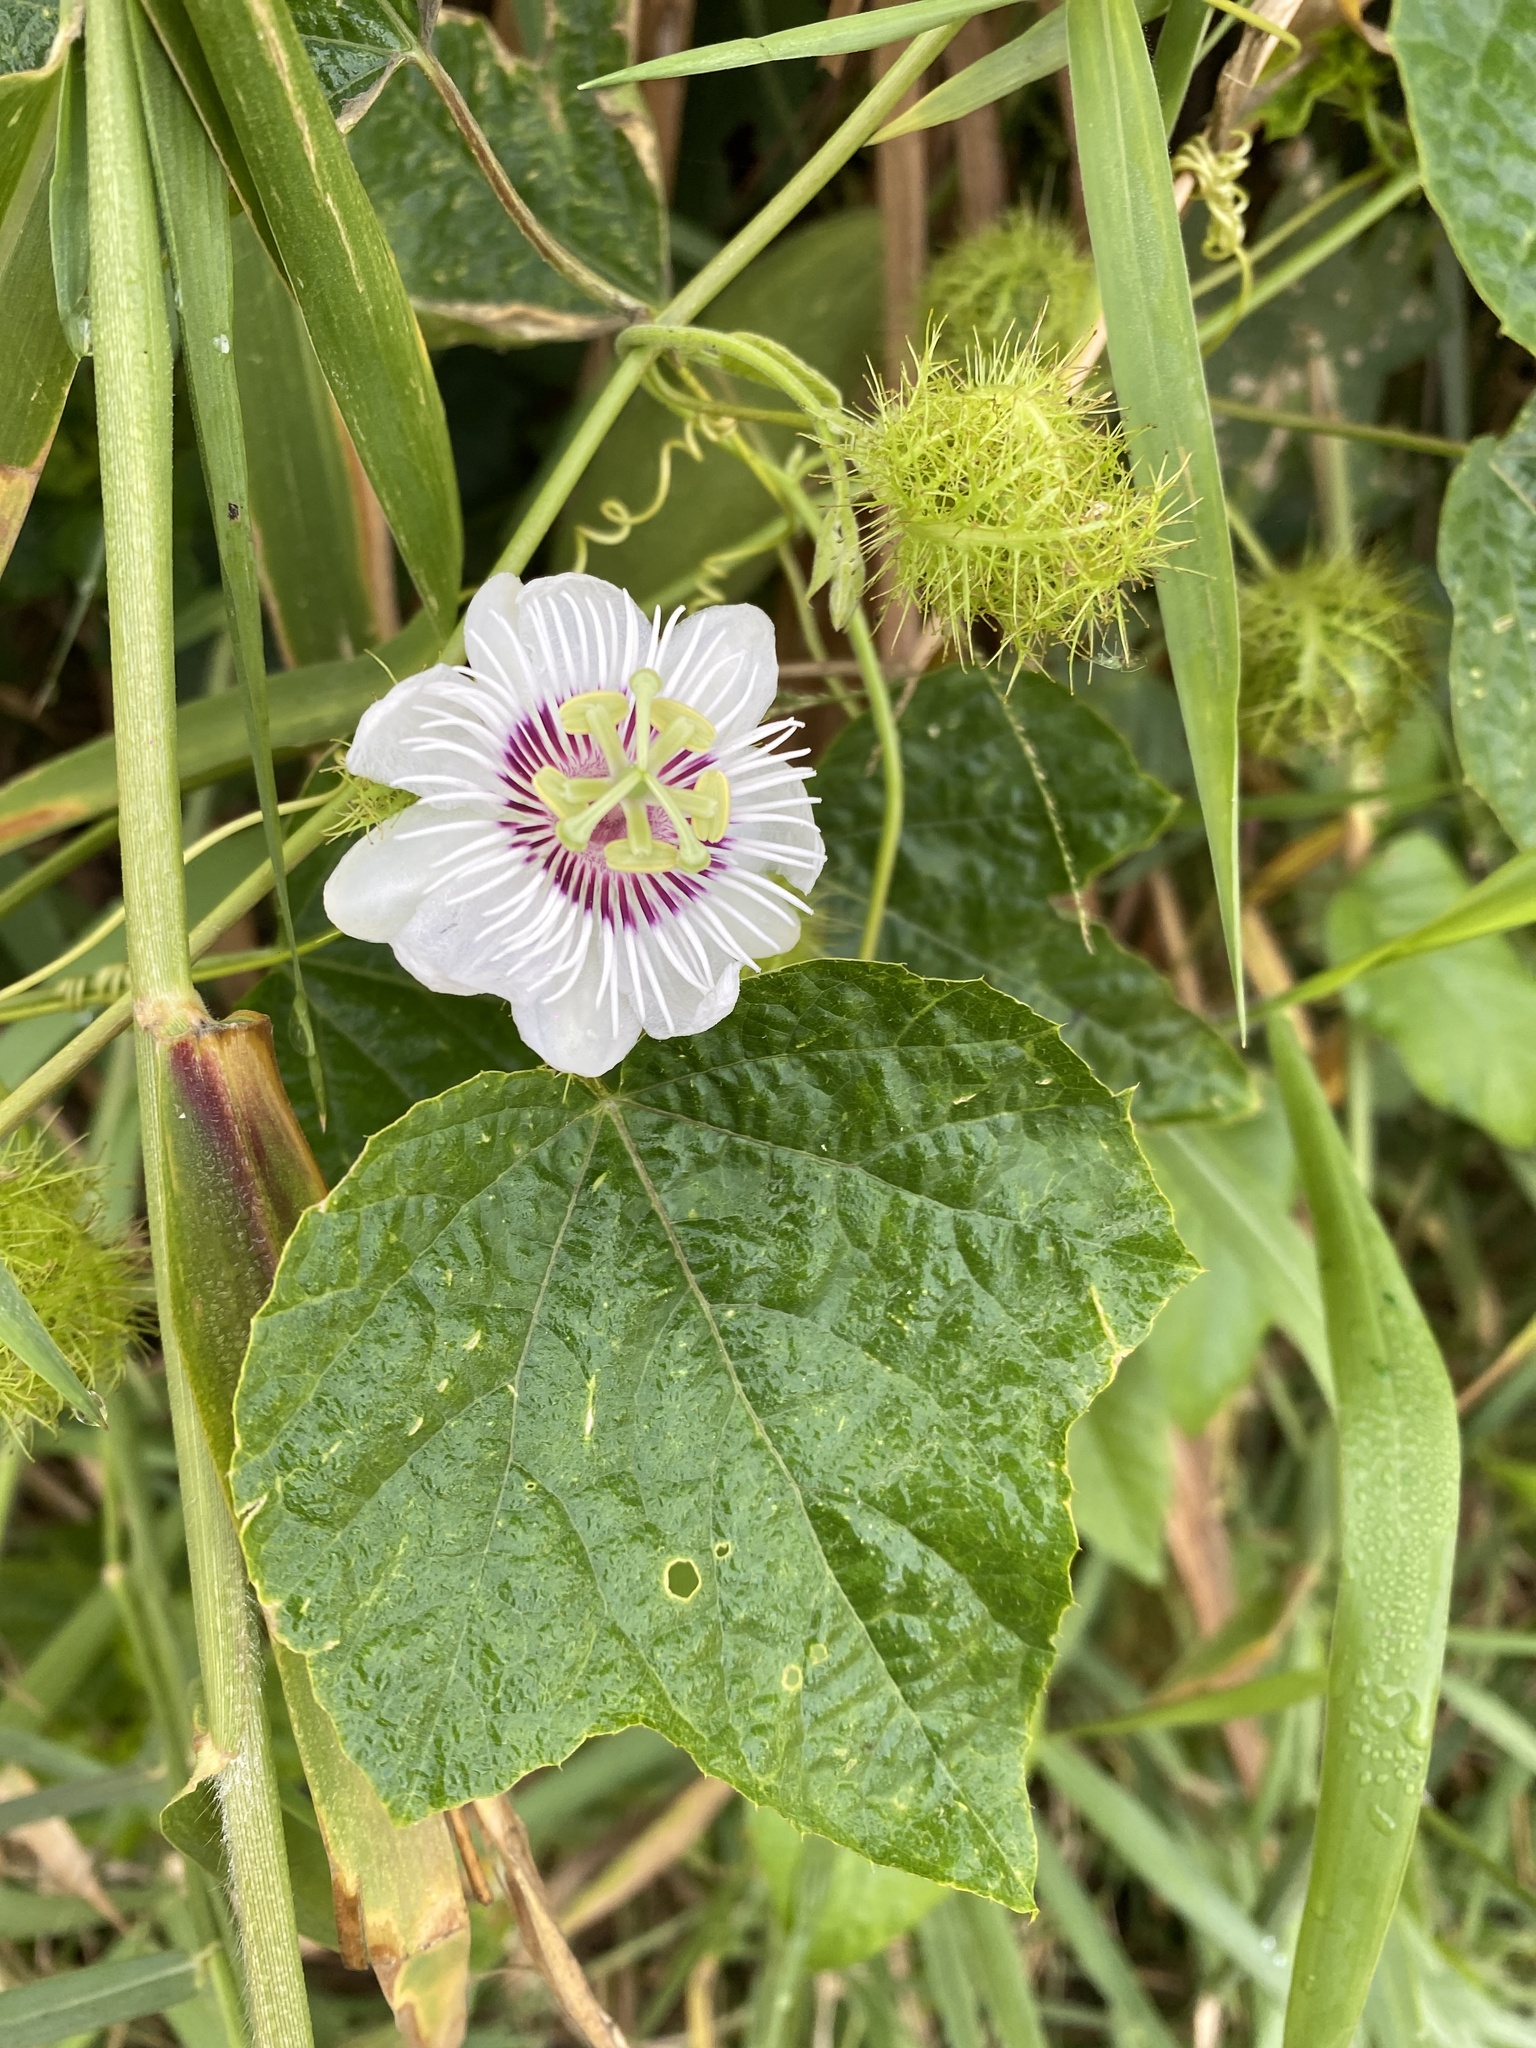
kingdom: Plantae
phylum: Tracheophyta
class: Magnoliopsida
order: Malpighiales
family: Passifloraceae
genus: Passiflora
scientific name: Passiflora vesicaria
